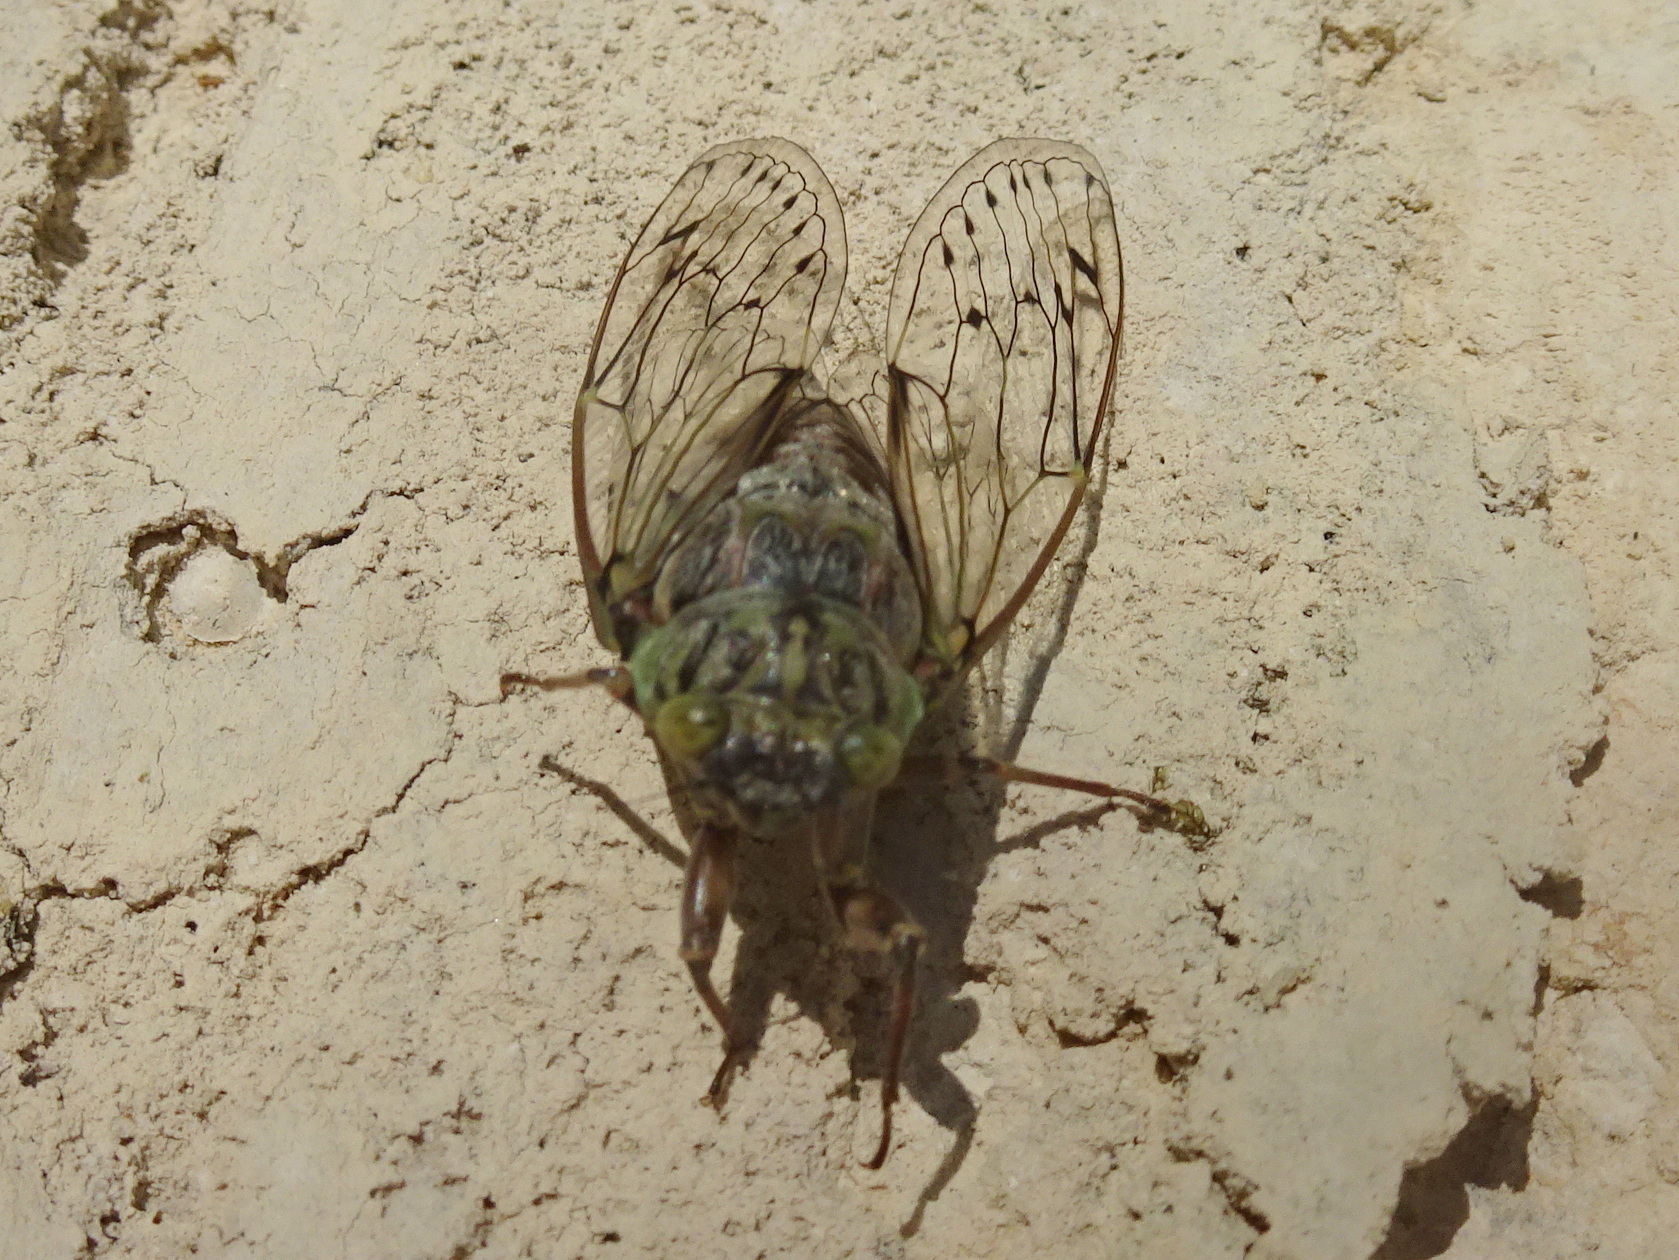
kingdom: Animalia
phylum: Arthropoda
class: Insecta
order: Hemiptera
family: Cicadidae
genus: Cicada
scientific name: Cicada orni
